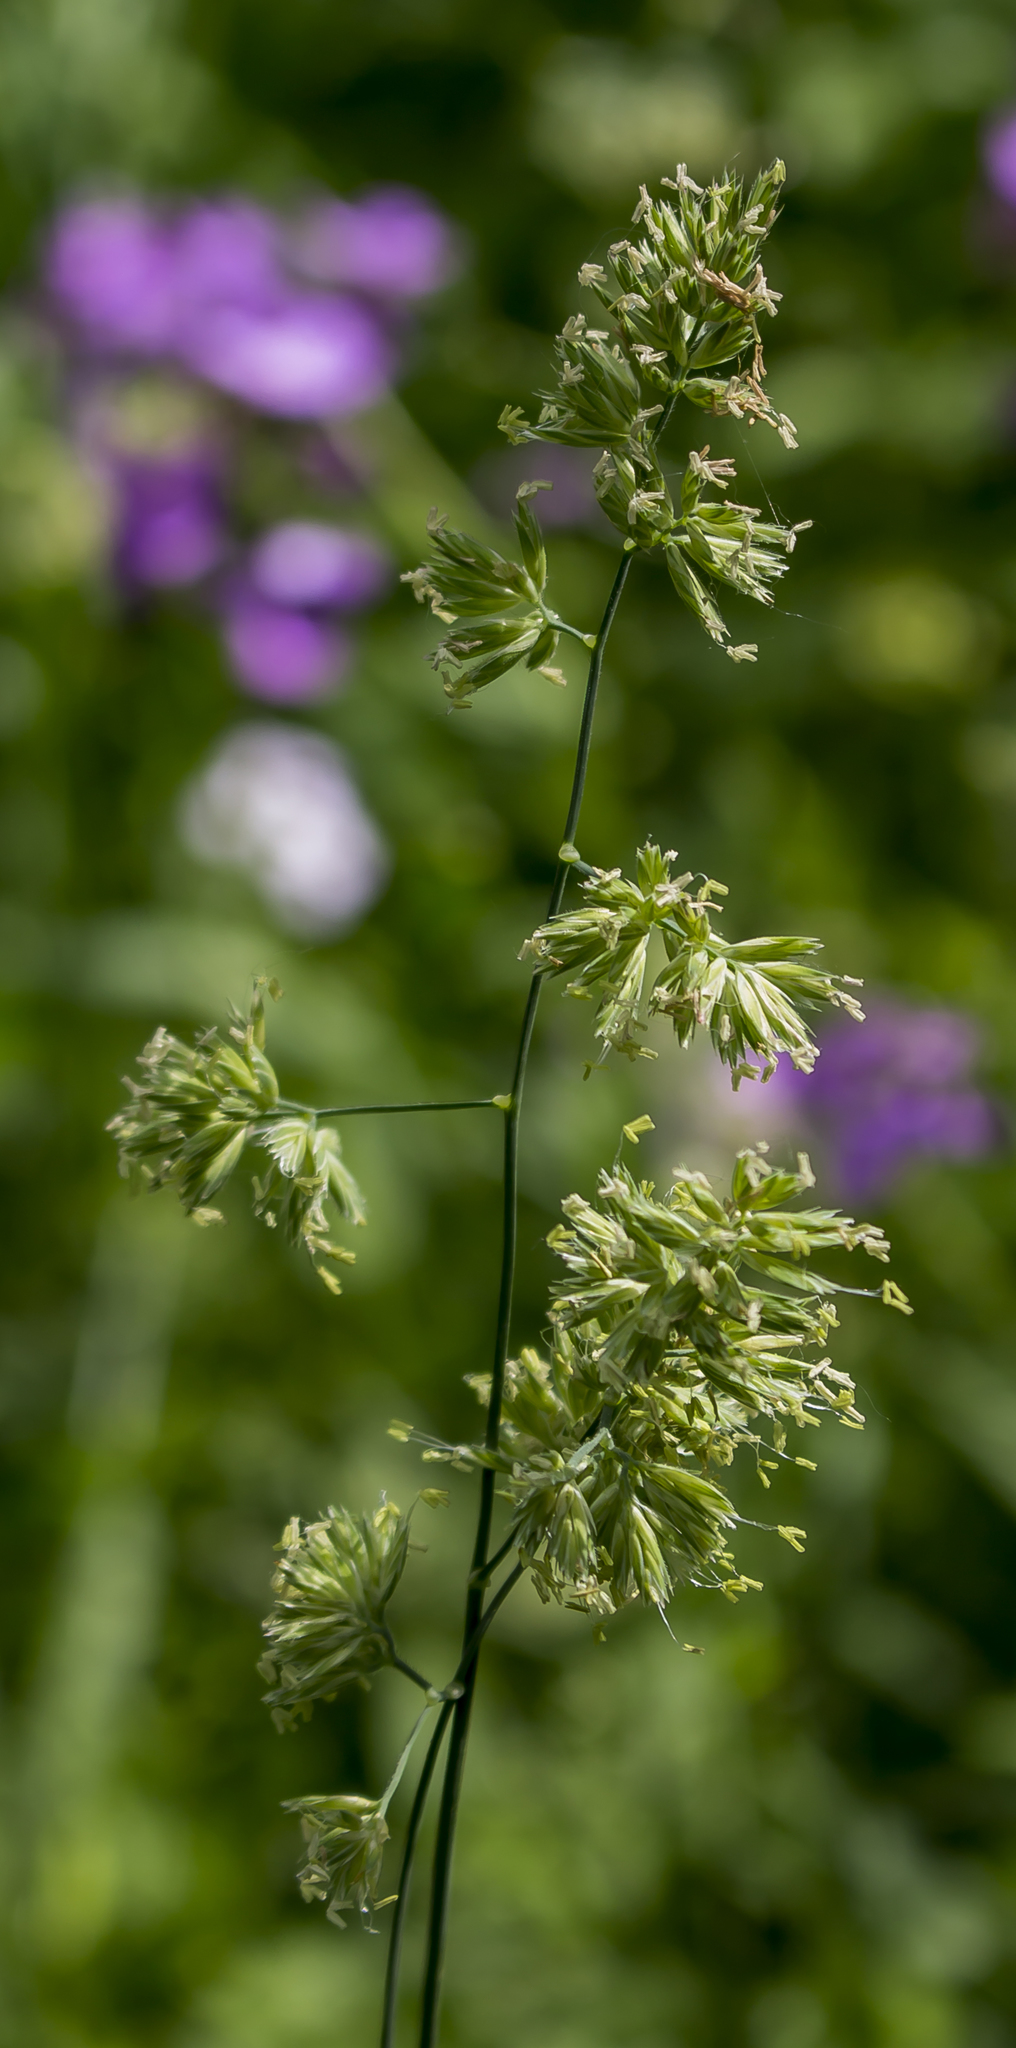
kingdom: Plantae
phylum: Tracheophyta
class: Liliopsida
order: Poales
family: Poaceae
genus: Dactylis
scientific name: Dactylis glomerata
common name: Orchardgrass
